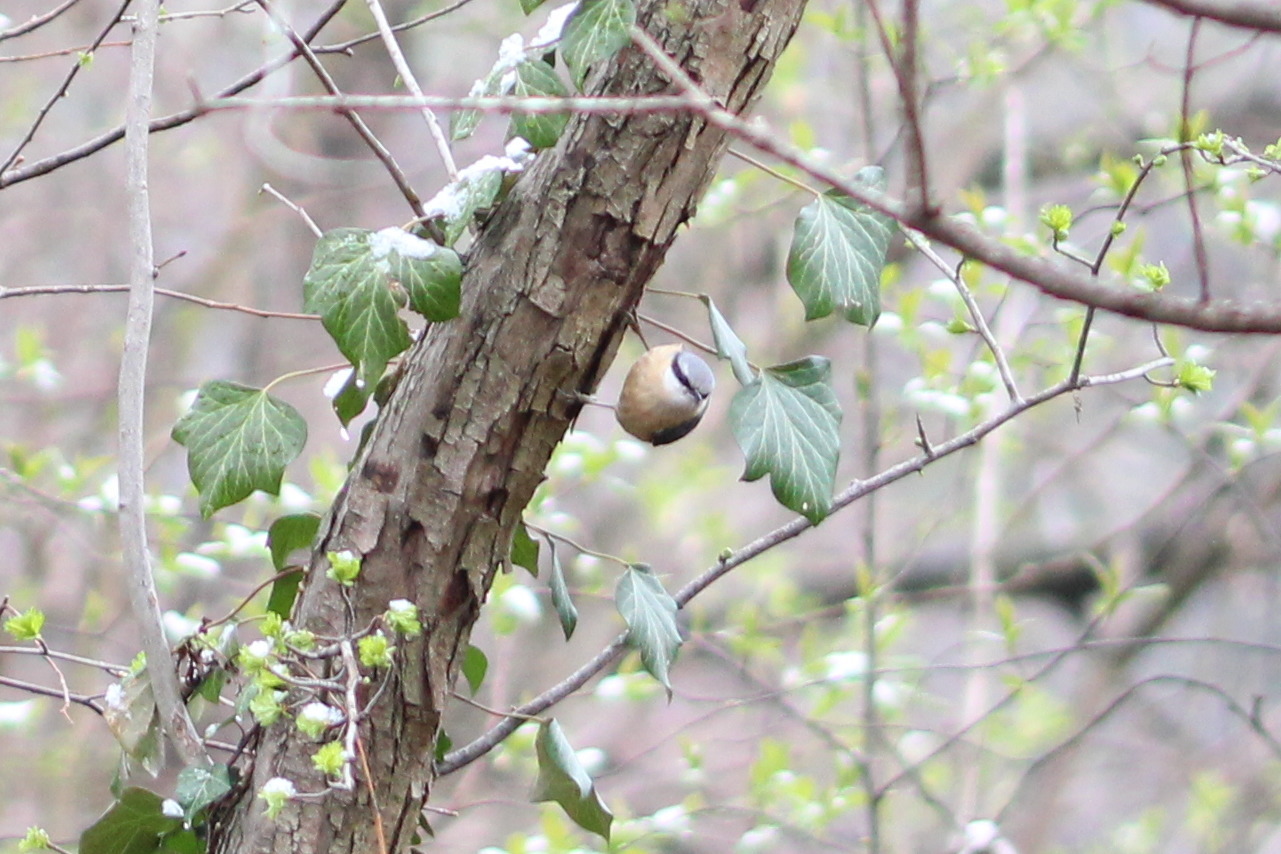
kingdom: Animalia
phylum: Chordata
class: Aves
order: Passeriformes
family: Sittidae
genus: Sitta
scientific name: Sitta europaea
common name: Eurasian nuthatch
